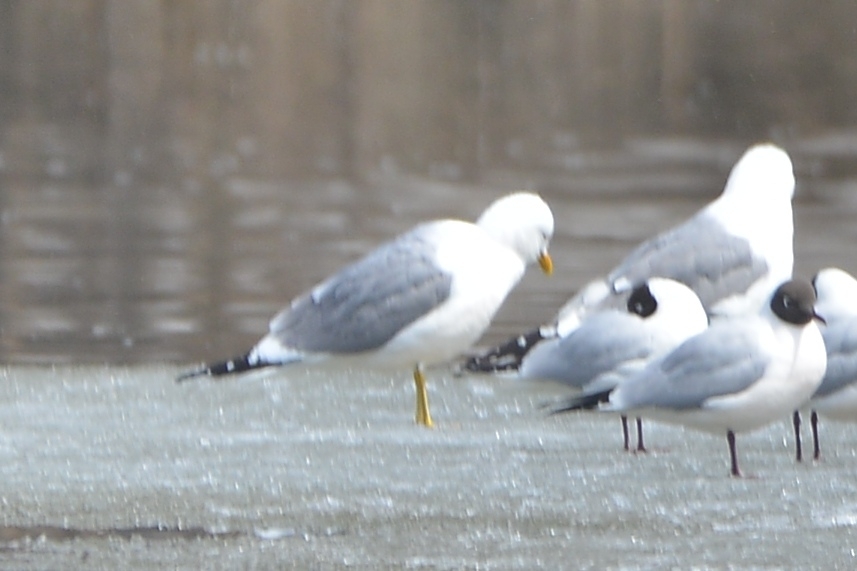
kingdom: Animalia
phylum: Chordata
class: Aves
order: Charadriiformes
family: Laridae
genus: Larus
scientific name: Larus canus
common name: Mew gull
